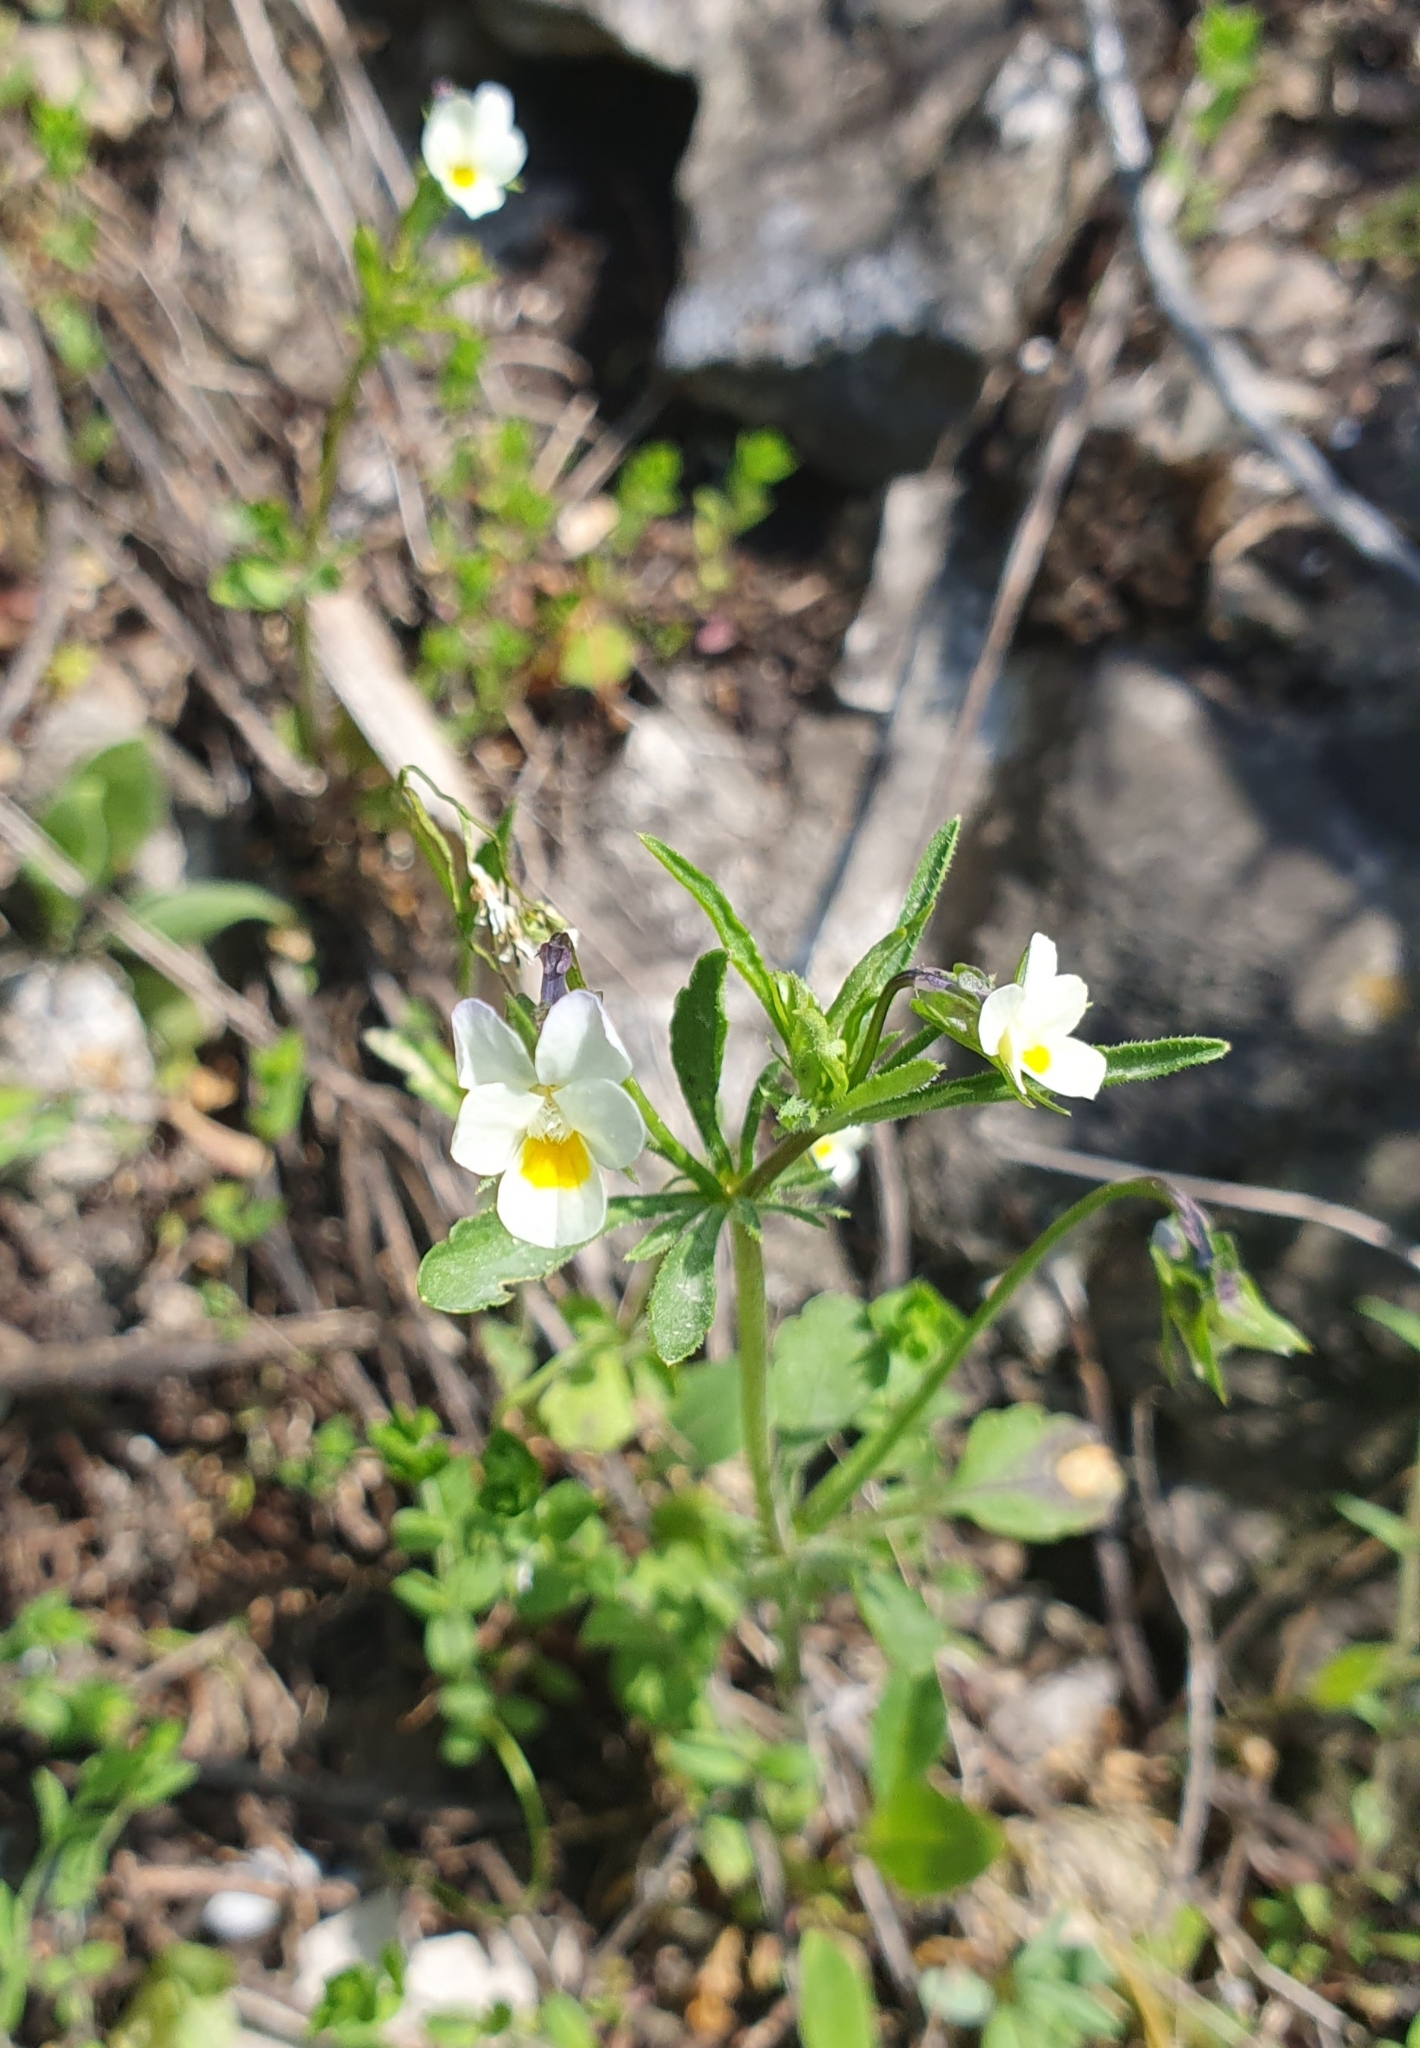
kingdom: Plantae
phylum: Tracheophyta
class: Magnoliopsida
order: Malpighiales
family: Violaceae
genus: Viola
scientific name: Viola arvensis
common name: Field pansy
